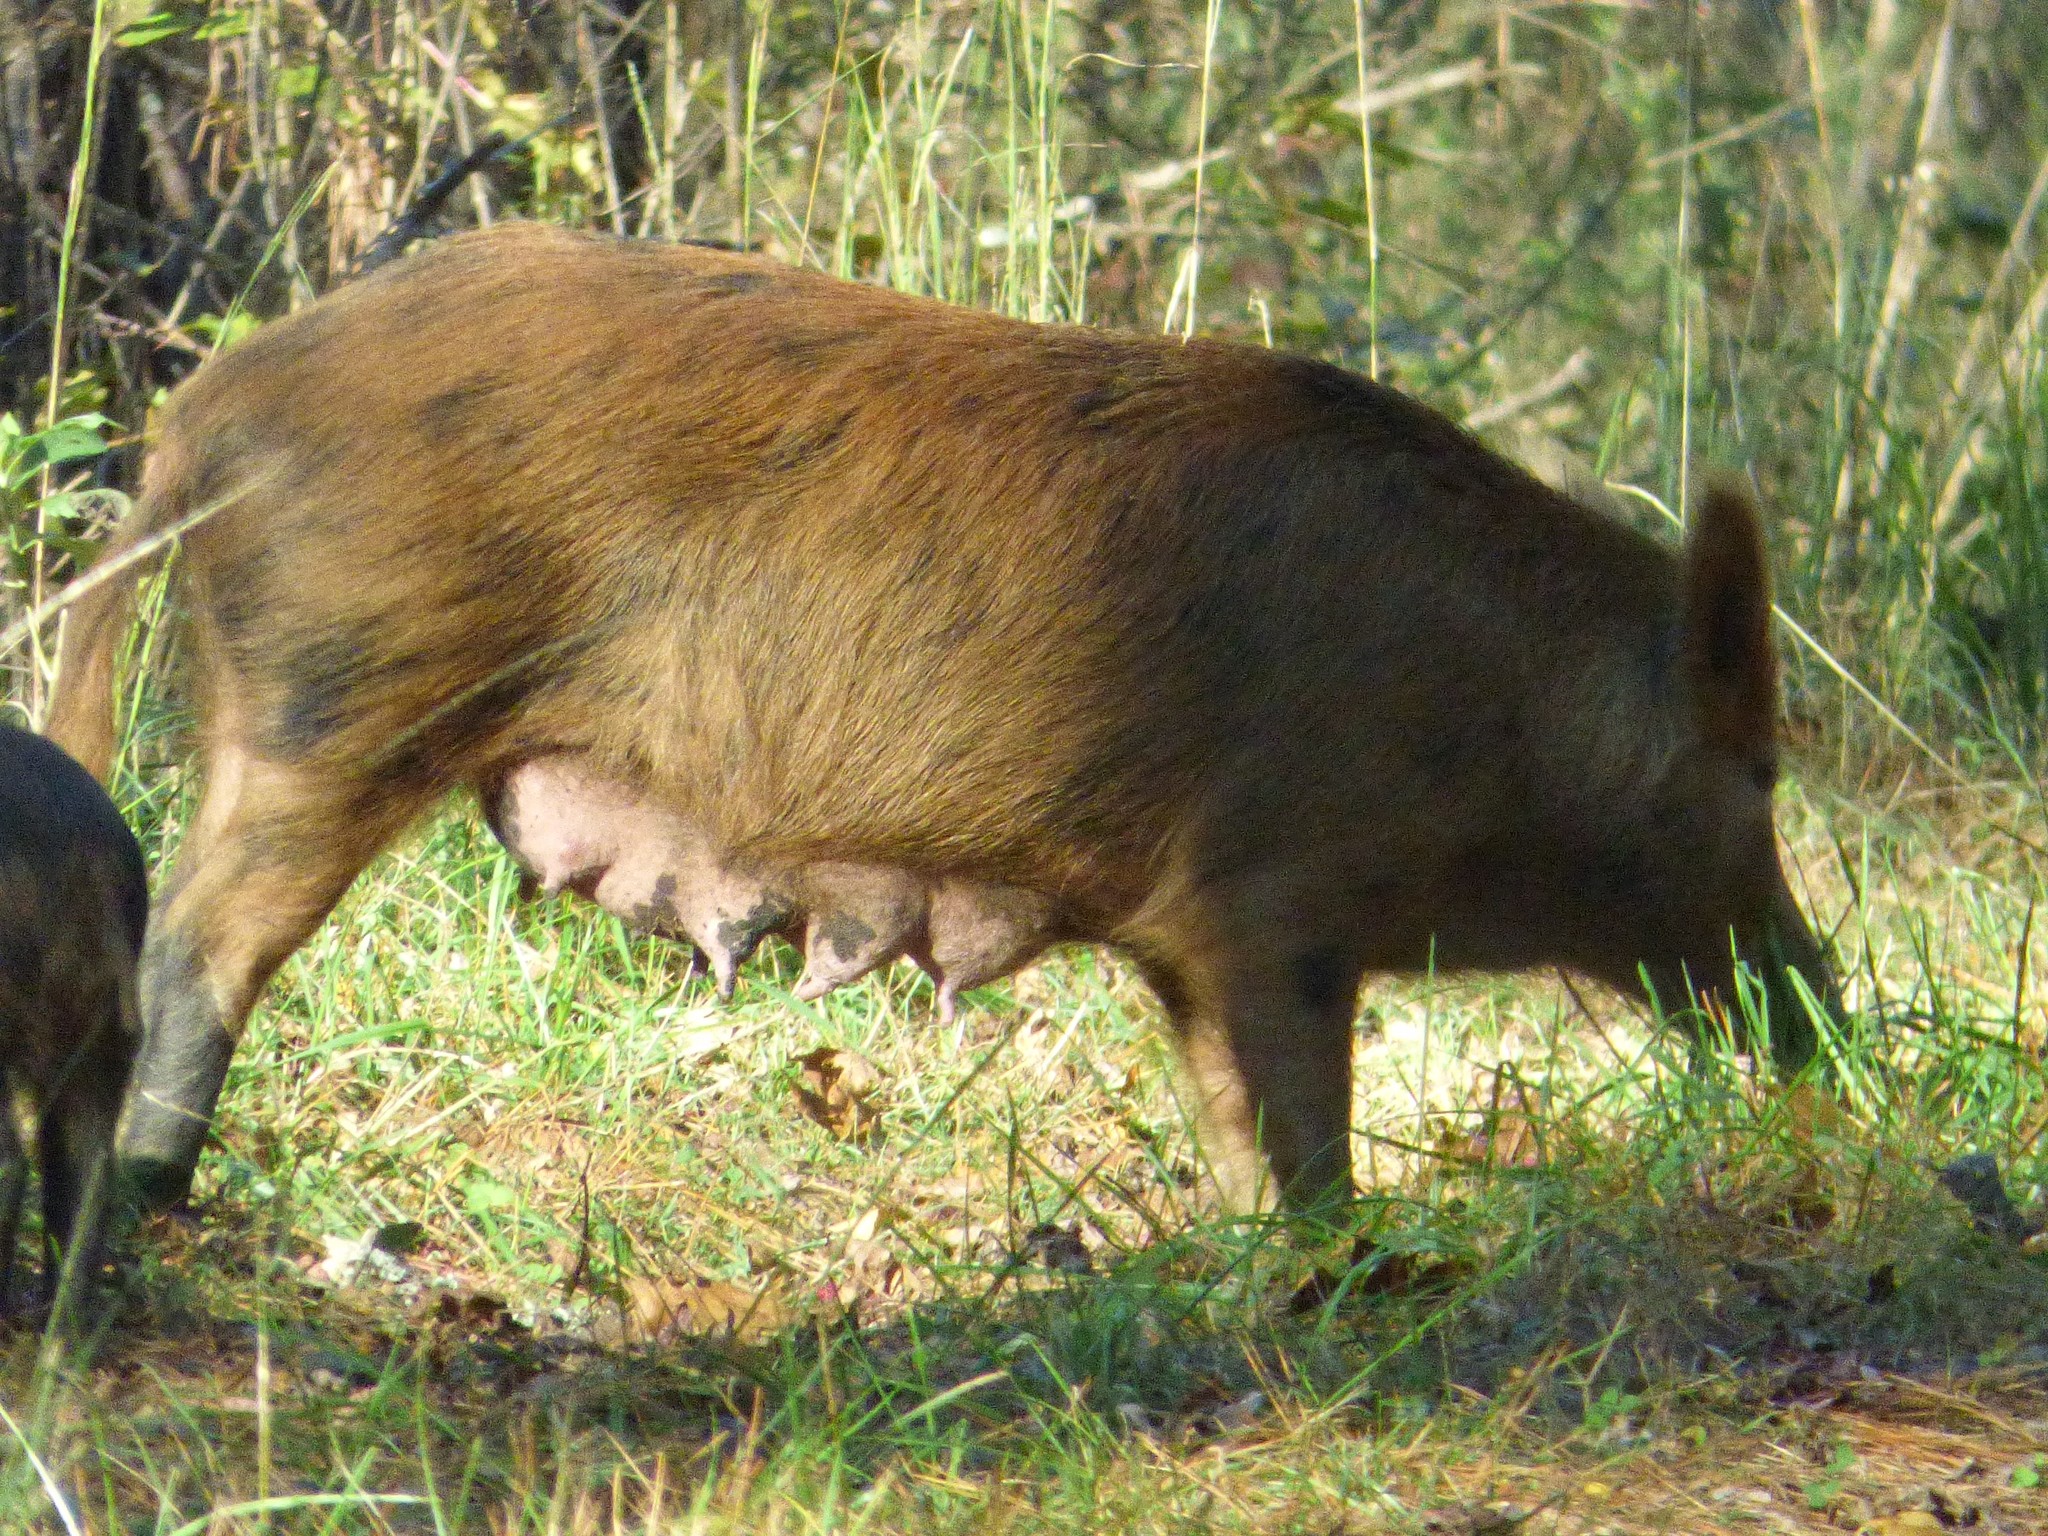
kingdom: Animalia
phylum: Chordata
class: Mammalia
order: Artiodactyla
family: Suidae
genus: Sus
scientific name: Sus scrofa
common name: Wild boar
